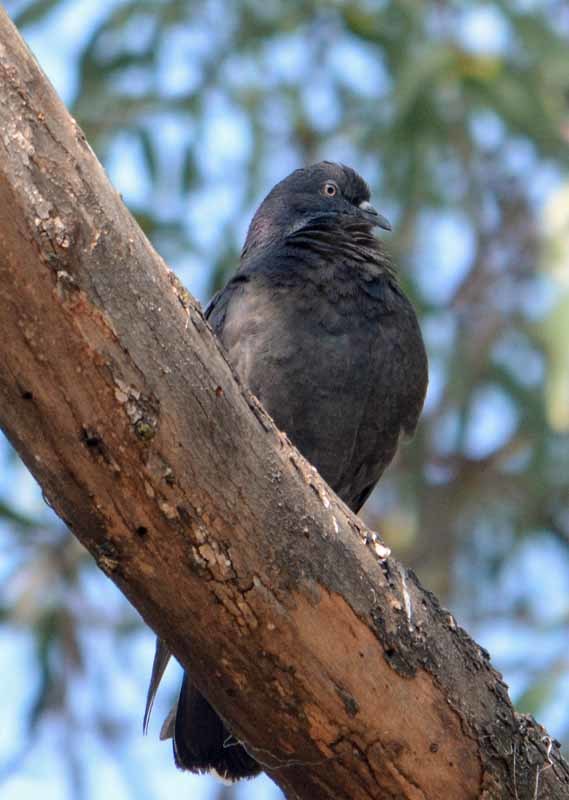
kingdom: Animalia
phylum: Chordata
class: Aves
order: Columbiformes
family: Columbidae
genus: Columba
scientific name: Columba livia
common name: Rock pigeon
